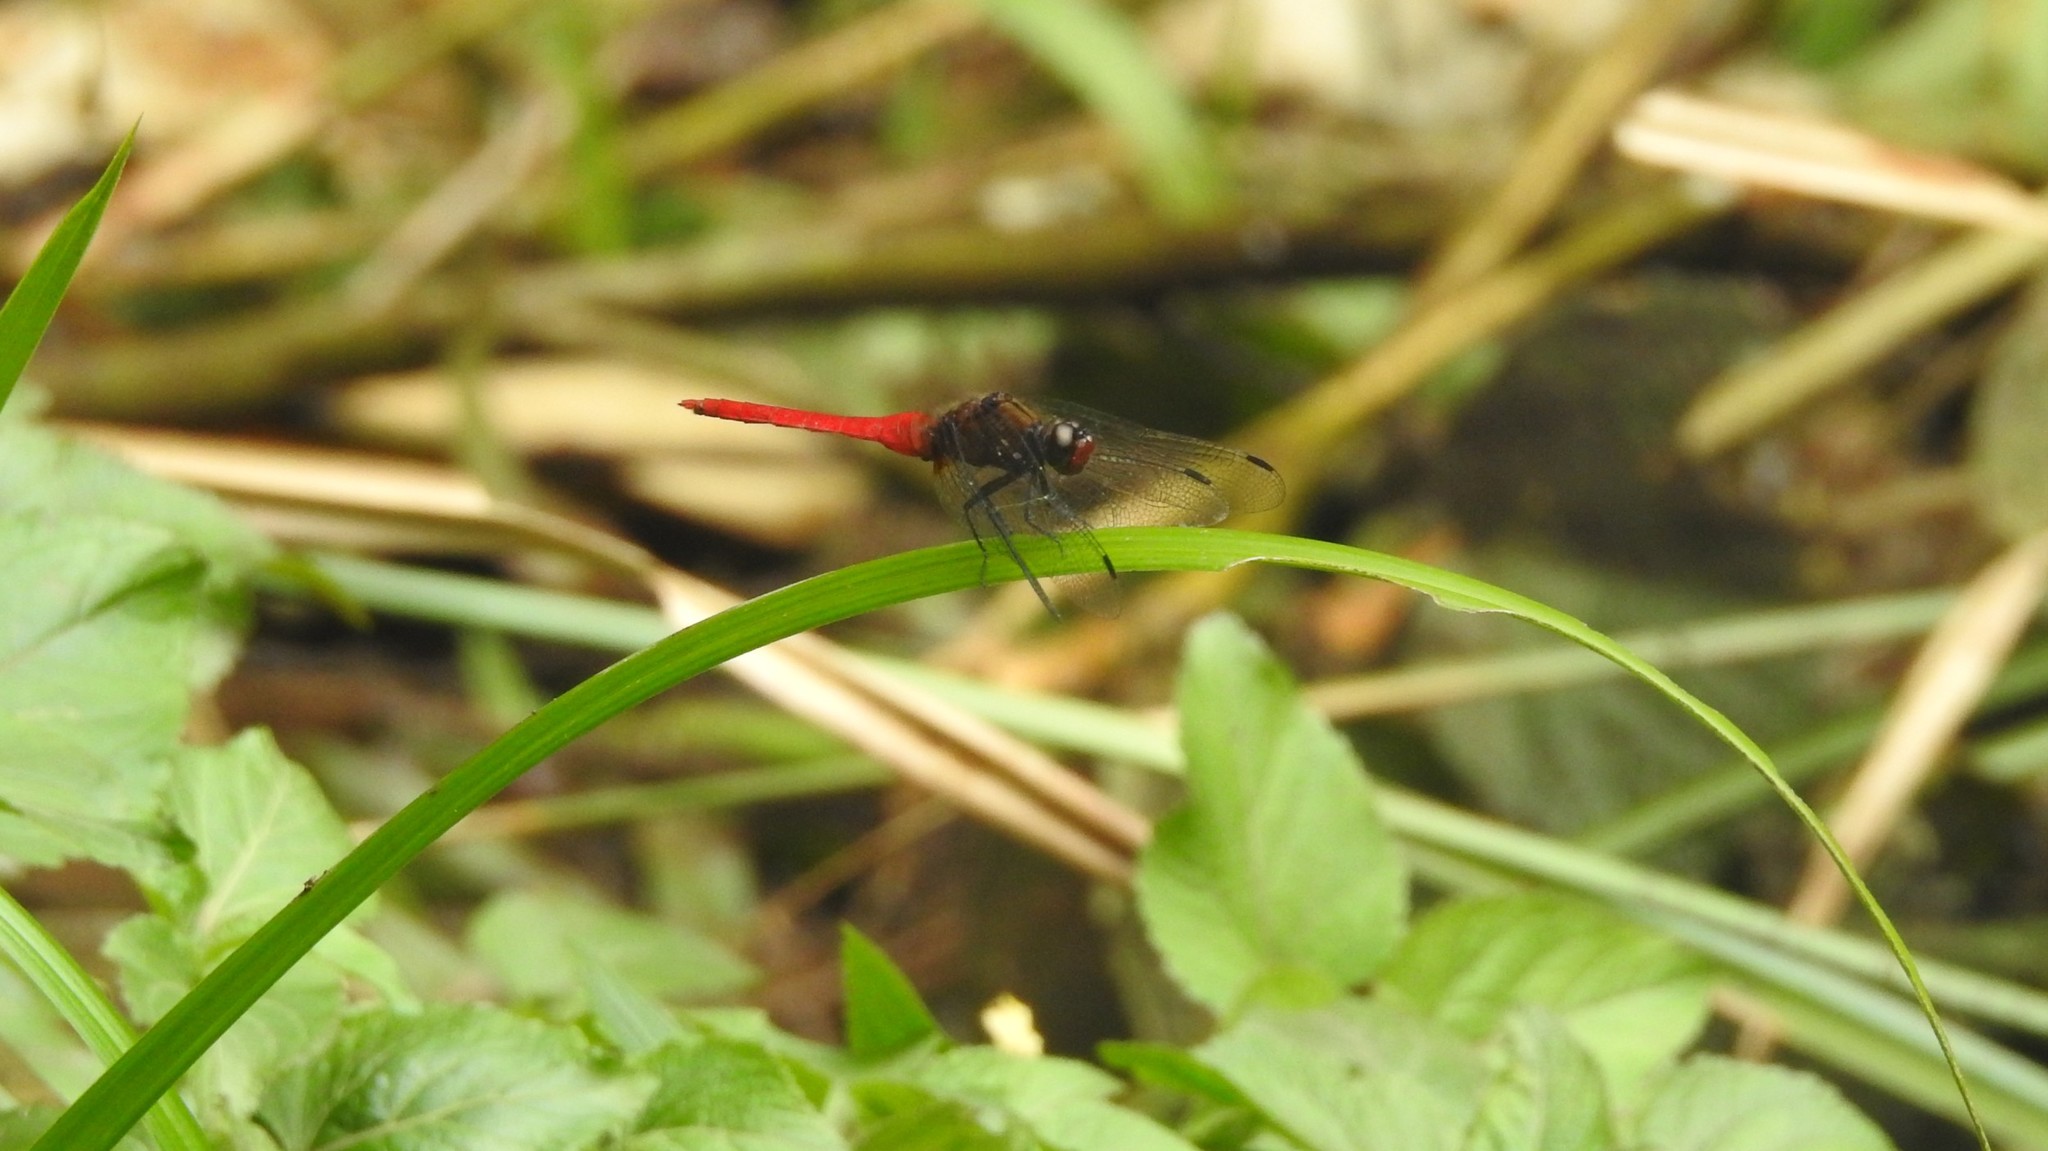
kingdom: Animalia
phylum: Arthropoda
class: Insecta
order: Odonata
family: Libellulidae
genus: Orthetrum
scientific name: Orthetrum chrysis
